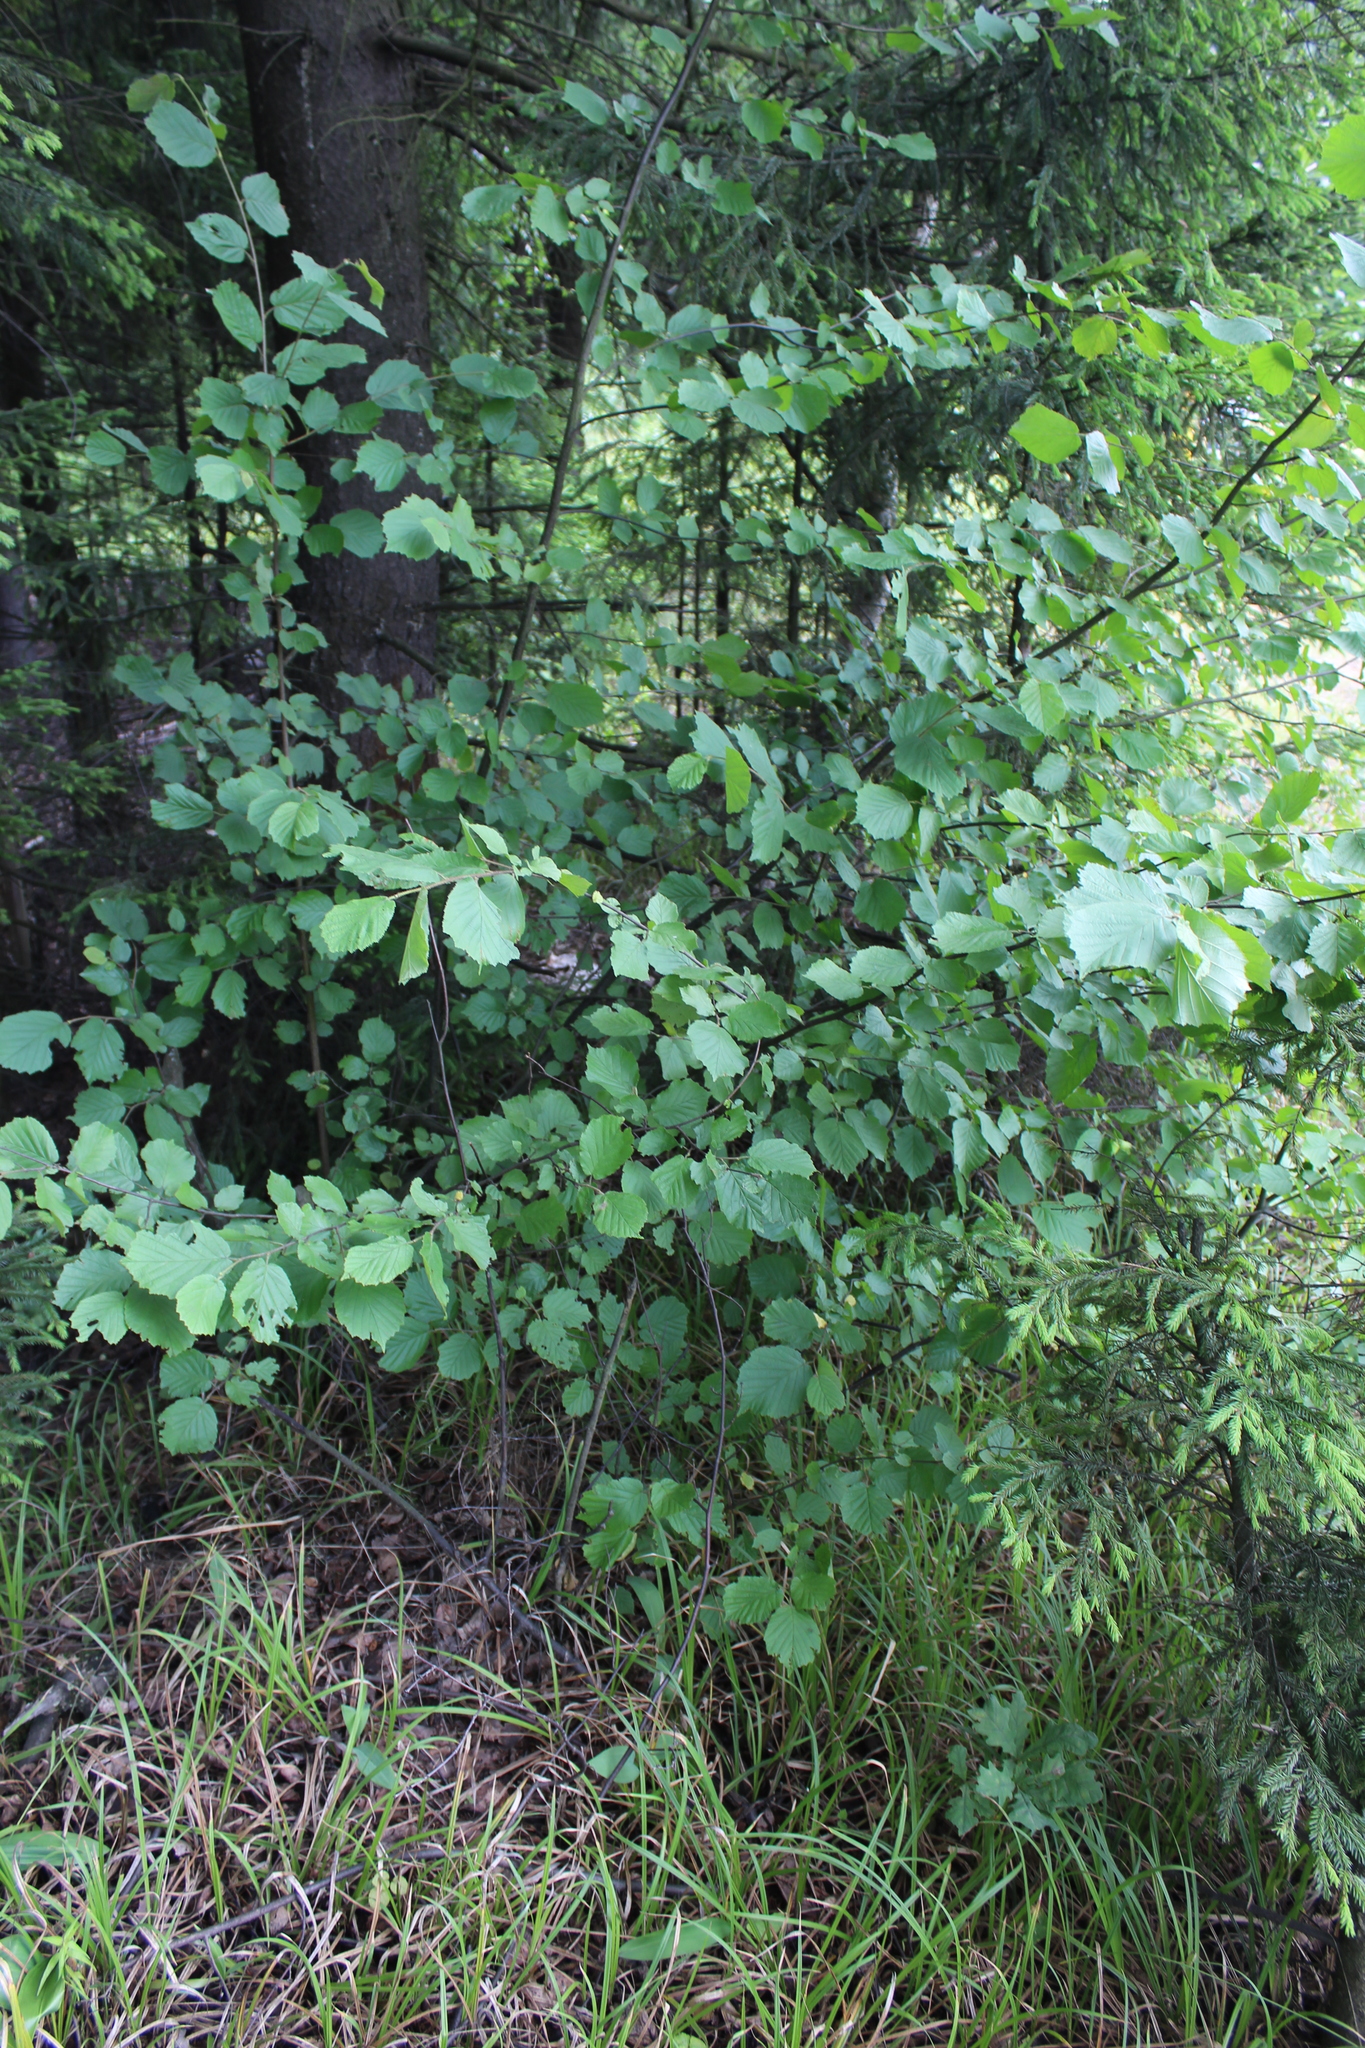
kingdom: Plantae
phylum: Tracheophyta
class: Magnoliopsida
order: Fagales
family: Betulaceae
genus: Corylus
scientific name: Corylus avellana
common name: European hazel
